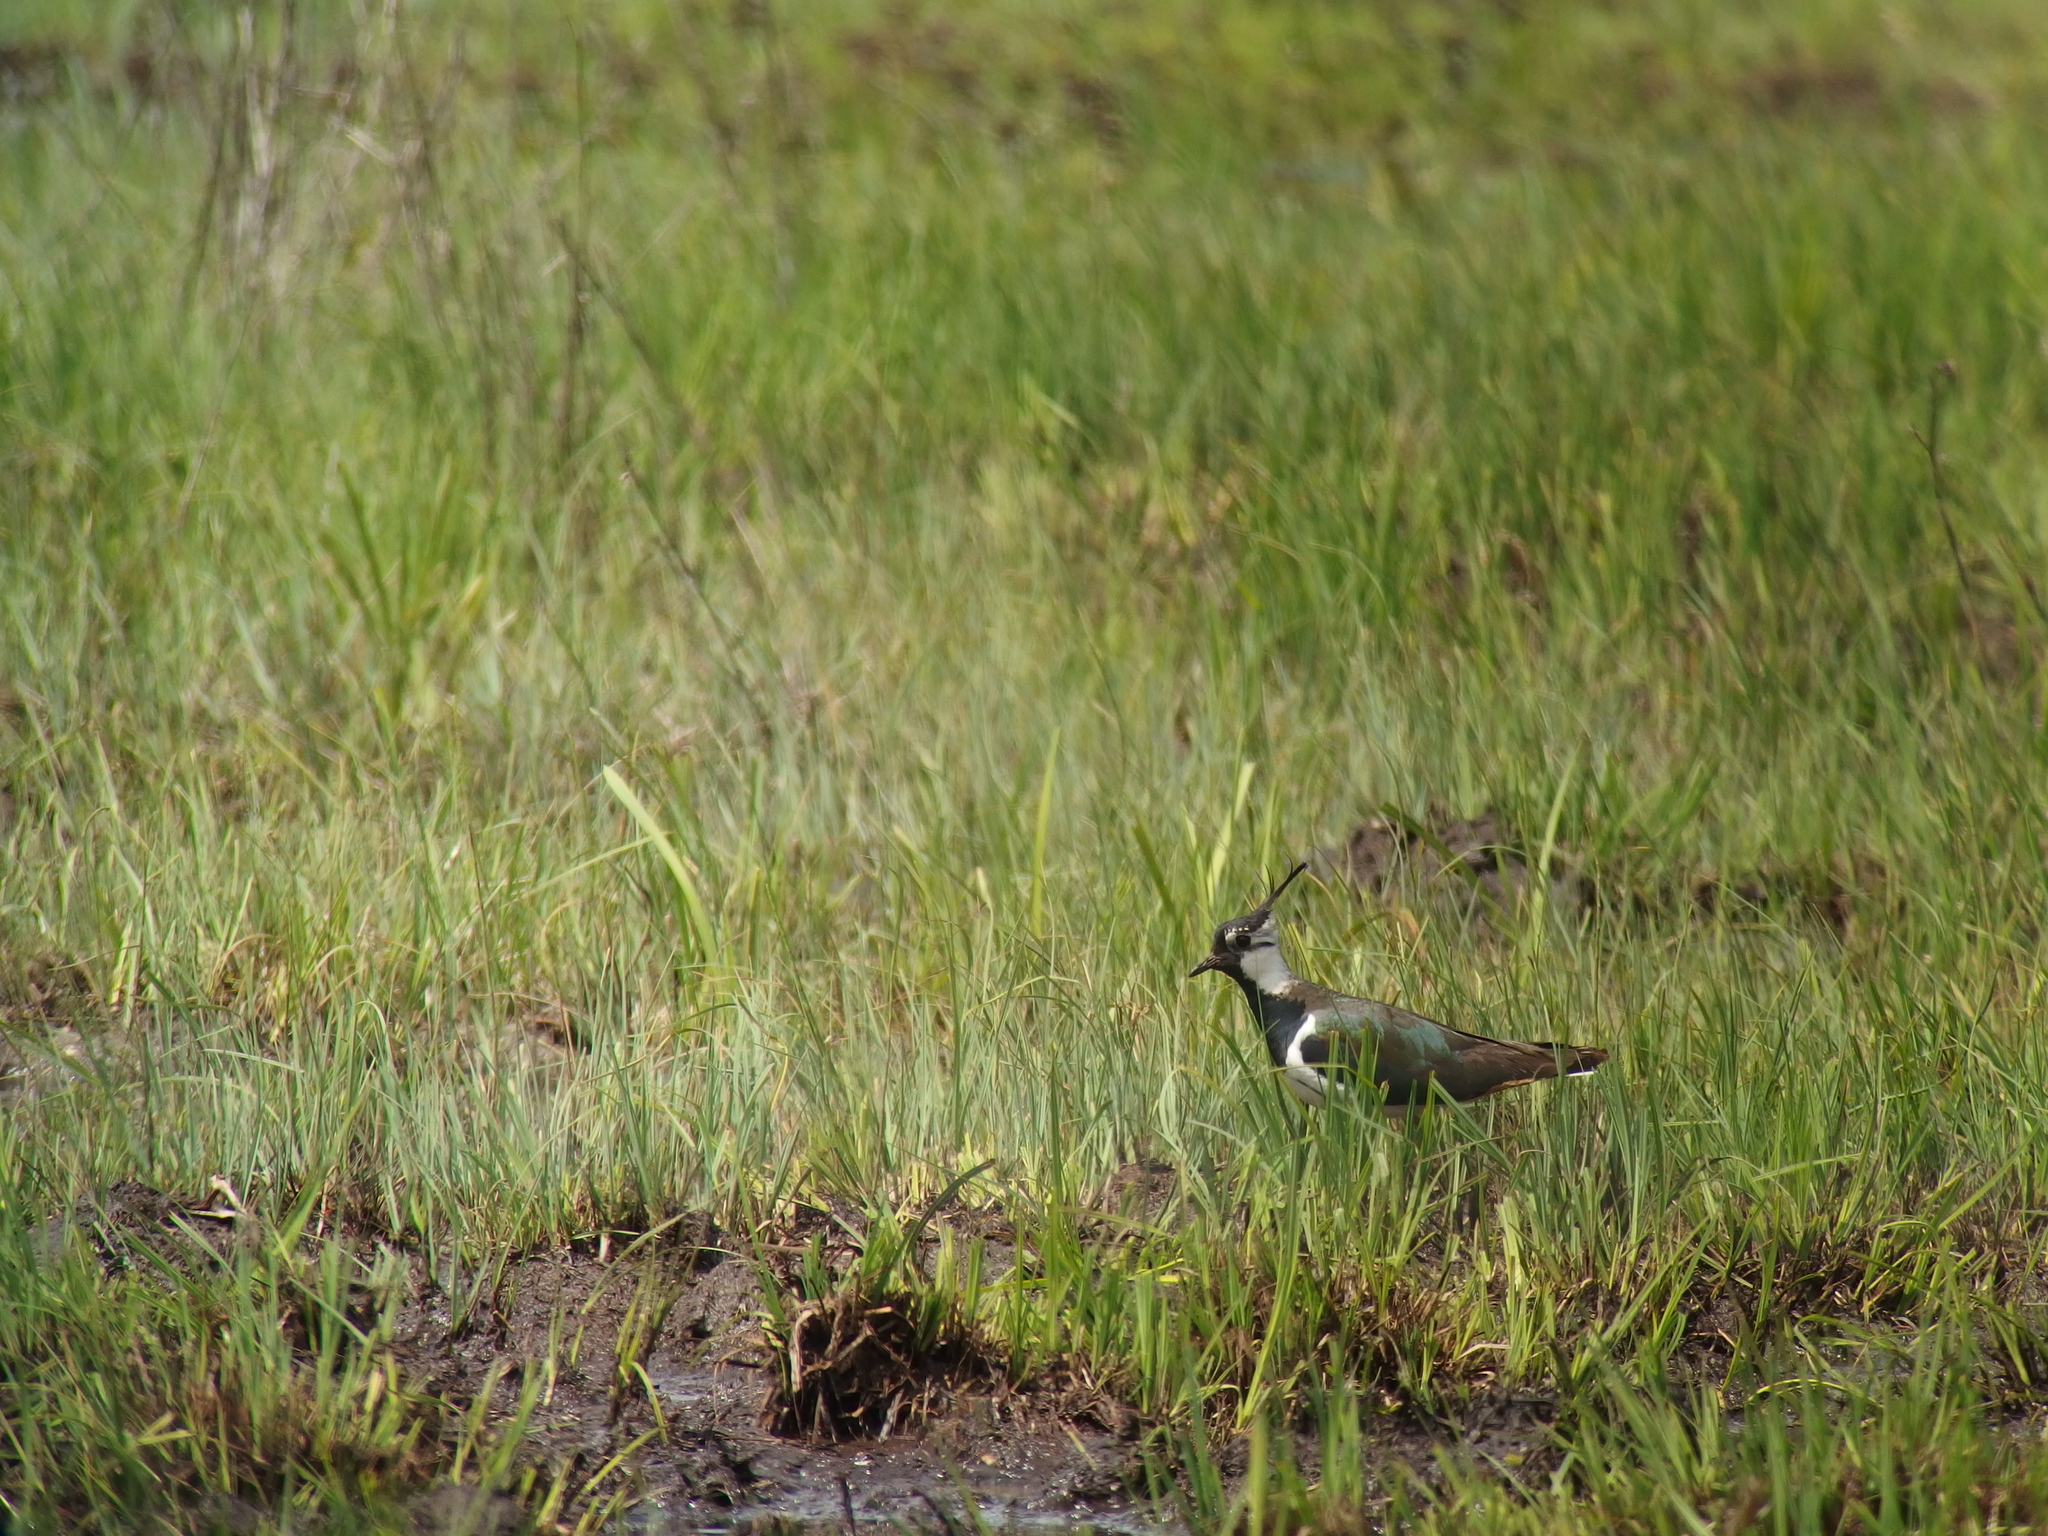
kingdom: Animalia
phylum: Chordata
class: Aves
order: Charadriiformes
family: Charadriidae
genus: Vanellus
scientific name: Vanellus vanellus
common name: Northern lapwing
